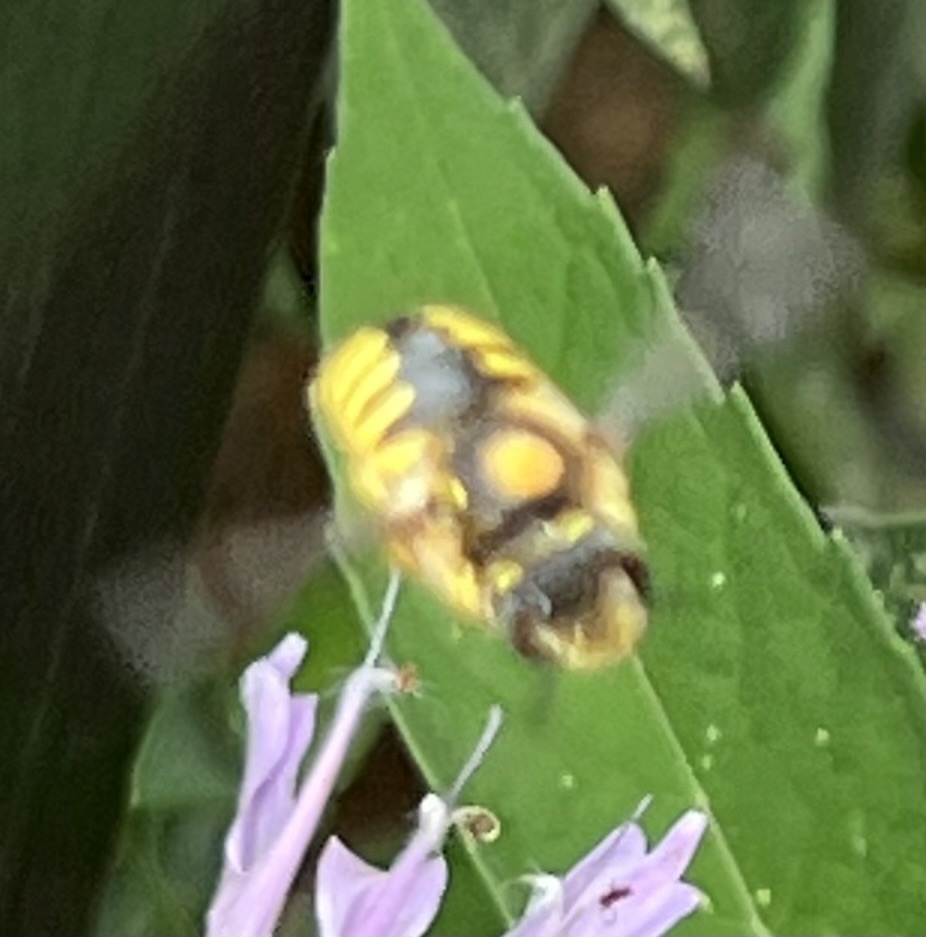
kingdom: Animalia
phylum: Arthropoda
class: Insecta
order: Hymenoptera
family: Megachilidae
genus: Anthidium
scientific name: Anthidium manicatum
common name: Wool carder bee
